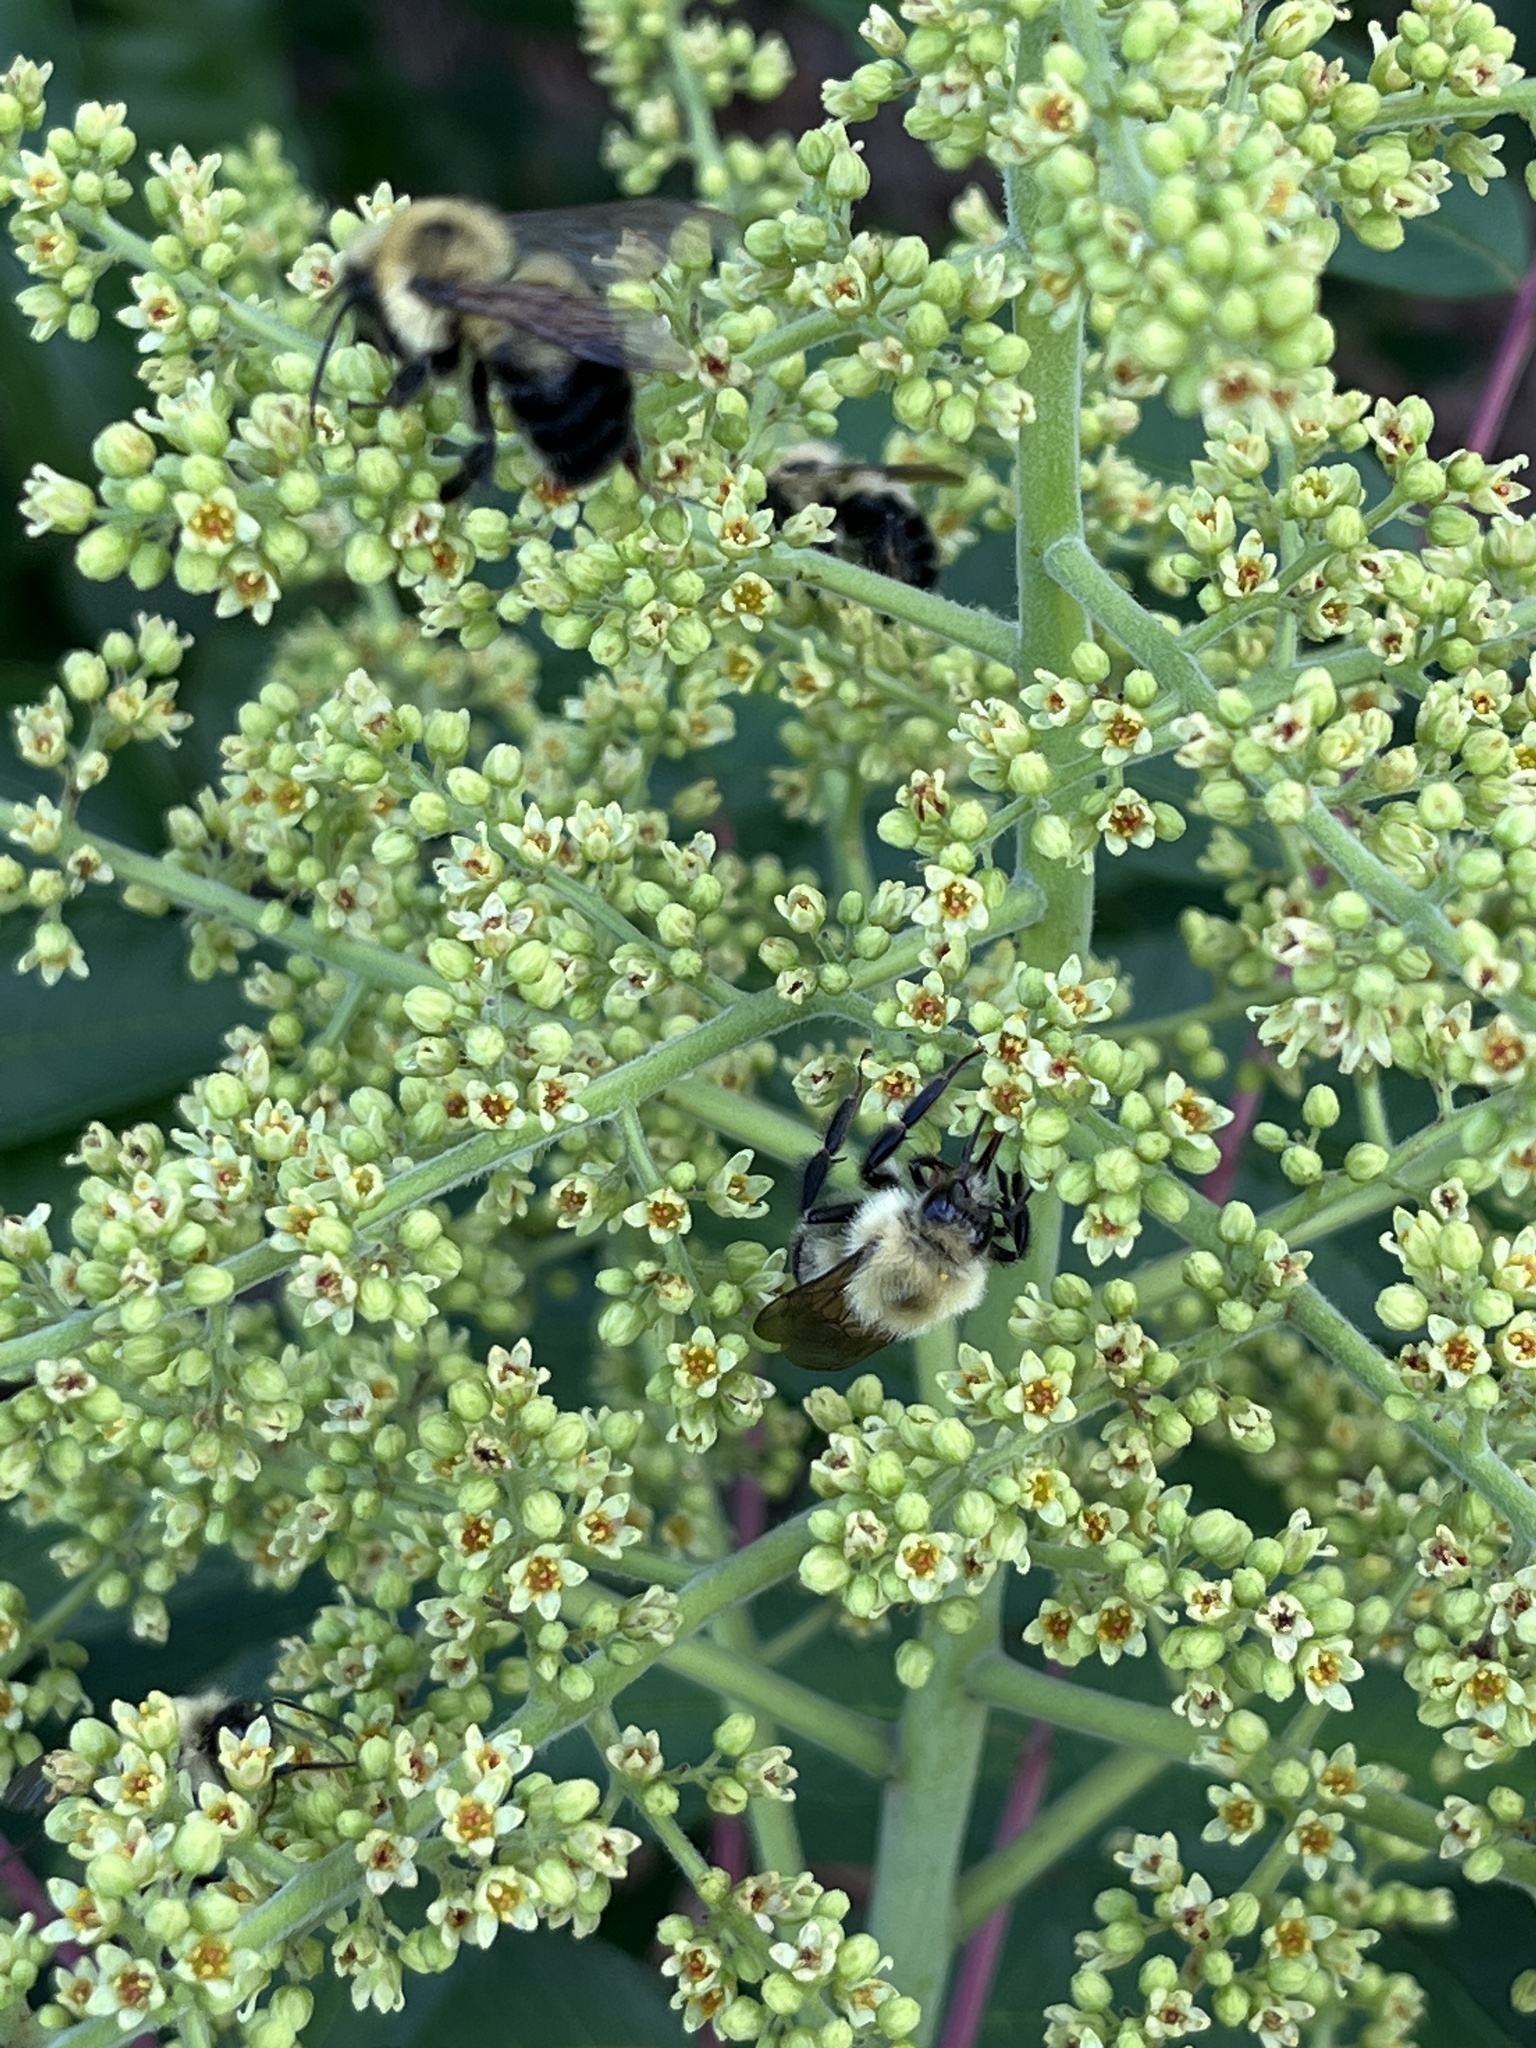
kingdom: Animalia
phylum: Arthropoda
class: Insecta
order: Hymenoptera
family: Apidae
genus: Bombus
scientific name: Bombus bimaculatus
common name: Two-spotted bumble bee
